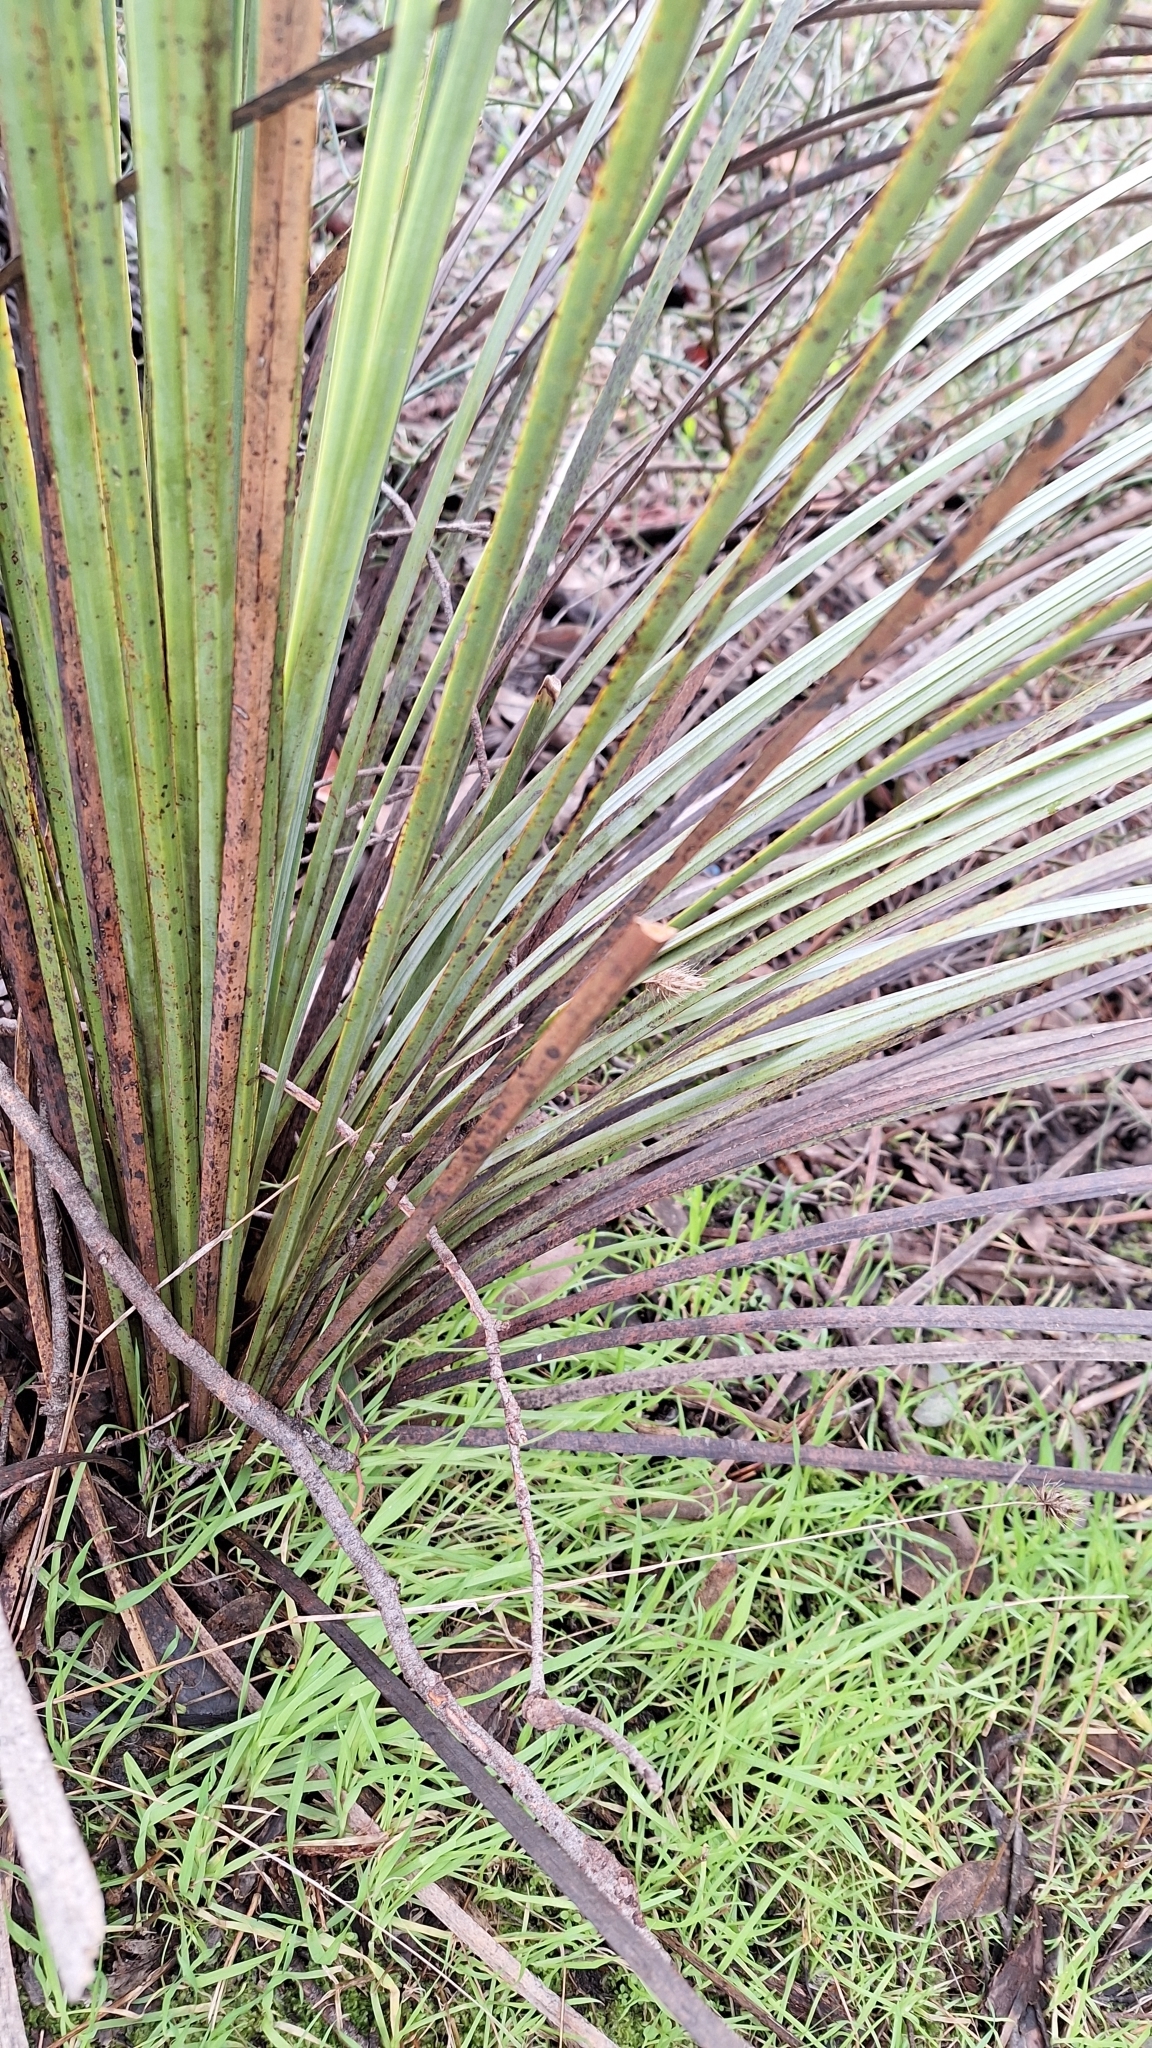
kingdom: Plantae
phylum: Tracheophyta
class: Liliopsida
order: Asparagales
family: Asphodelaceae
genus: Xanthorrhoea
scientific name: Xanthorrhoea semiplana
